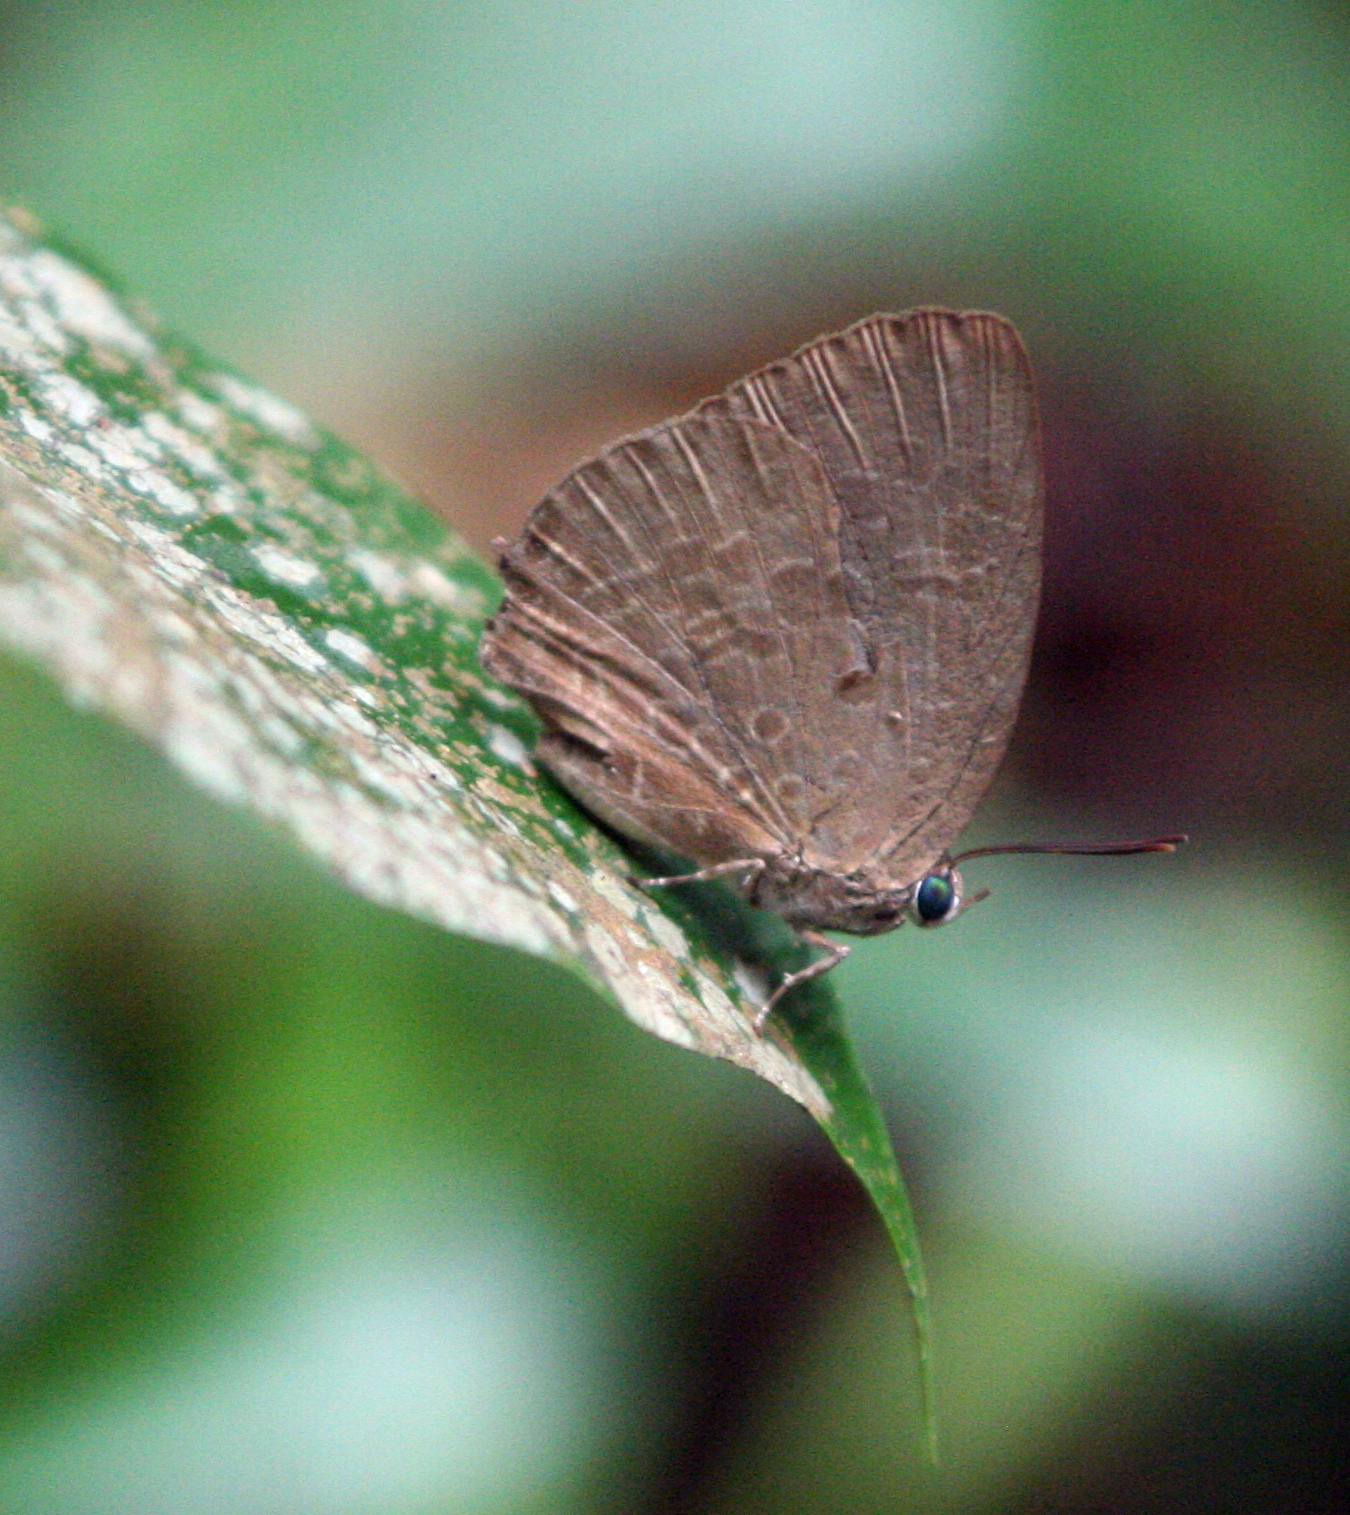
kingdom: Animalia
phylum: Arthropoda
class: Insecta
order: Lepidoptera
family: Lycaenidae
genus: Arhopala
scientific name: Arhopala elopura
